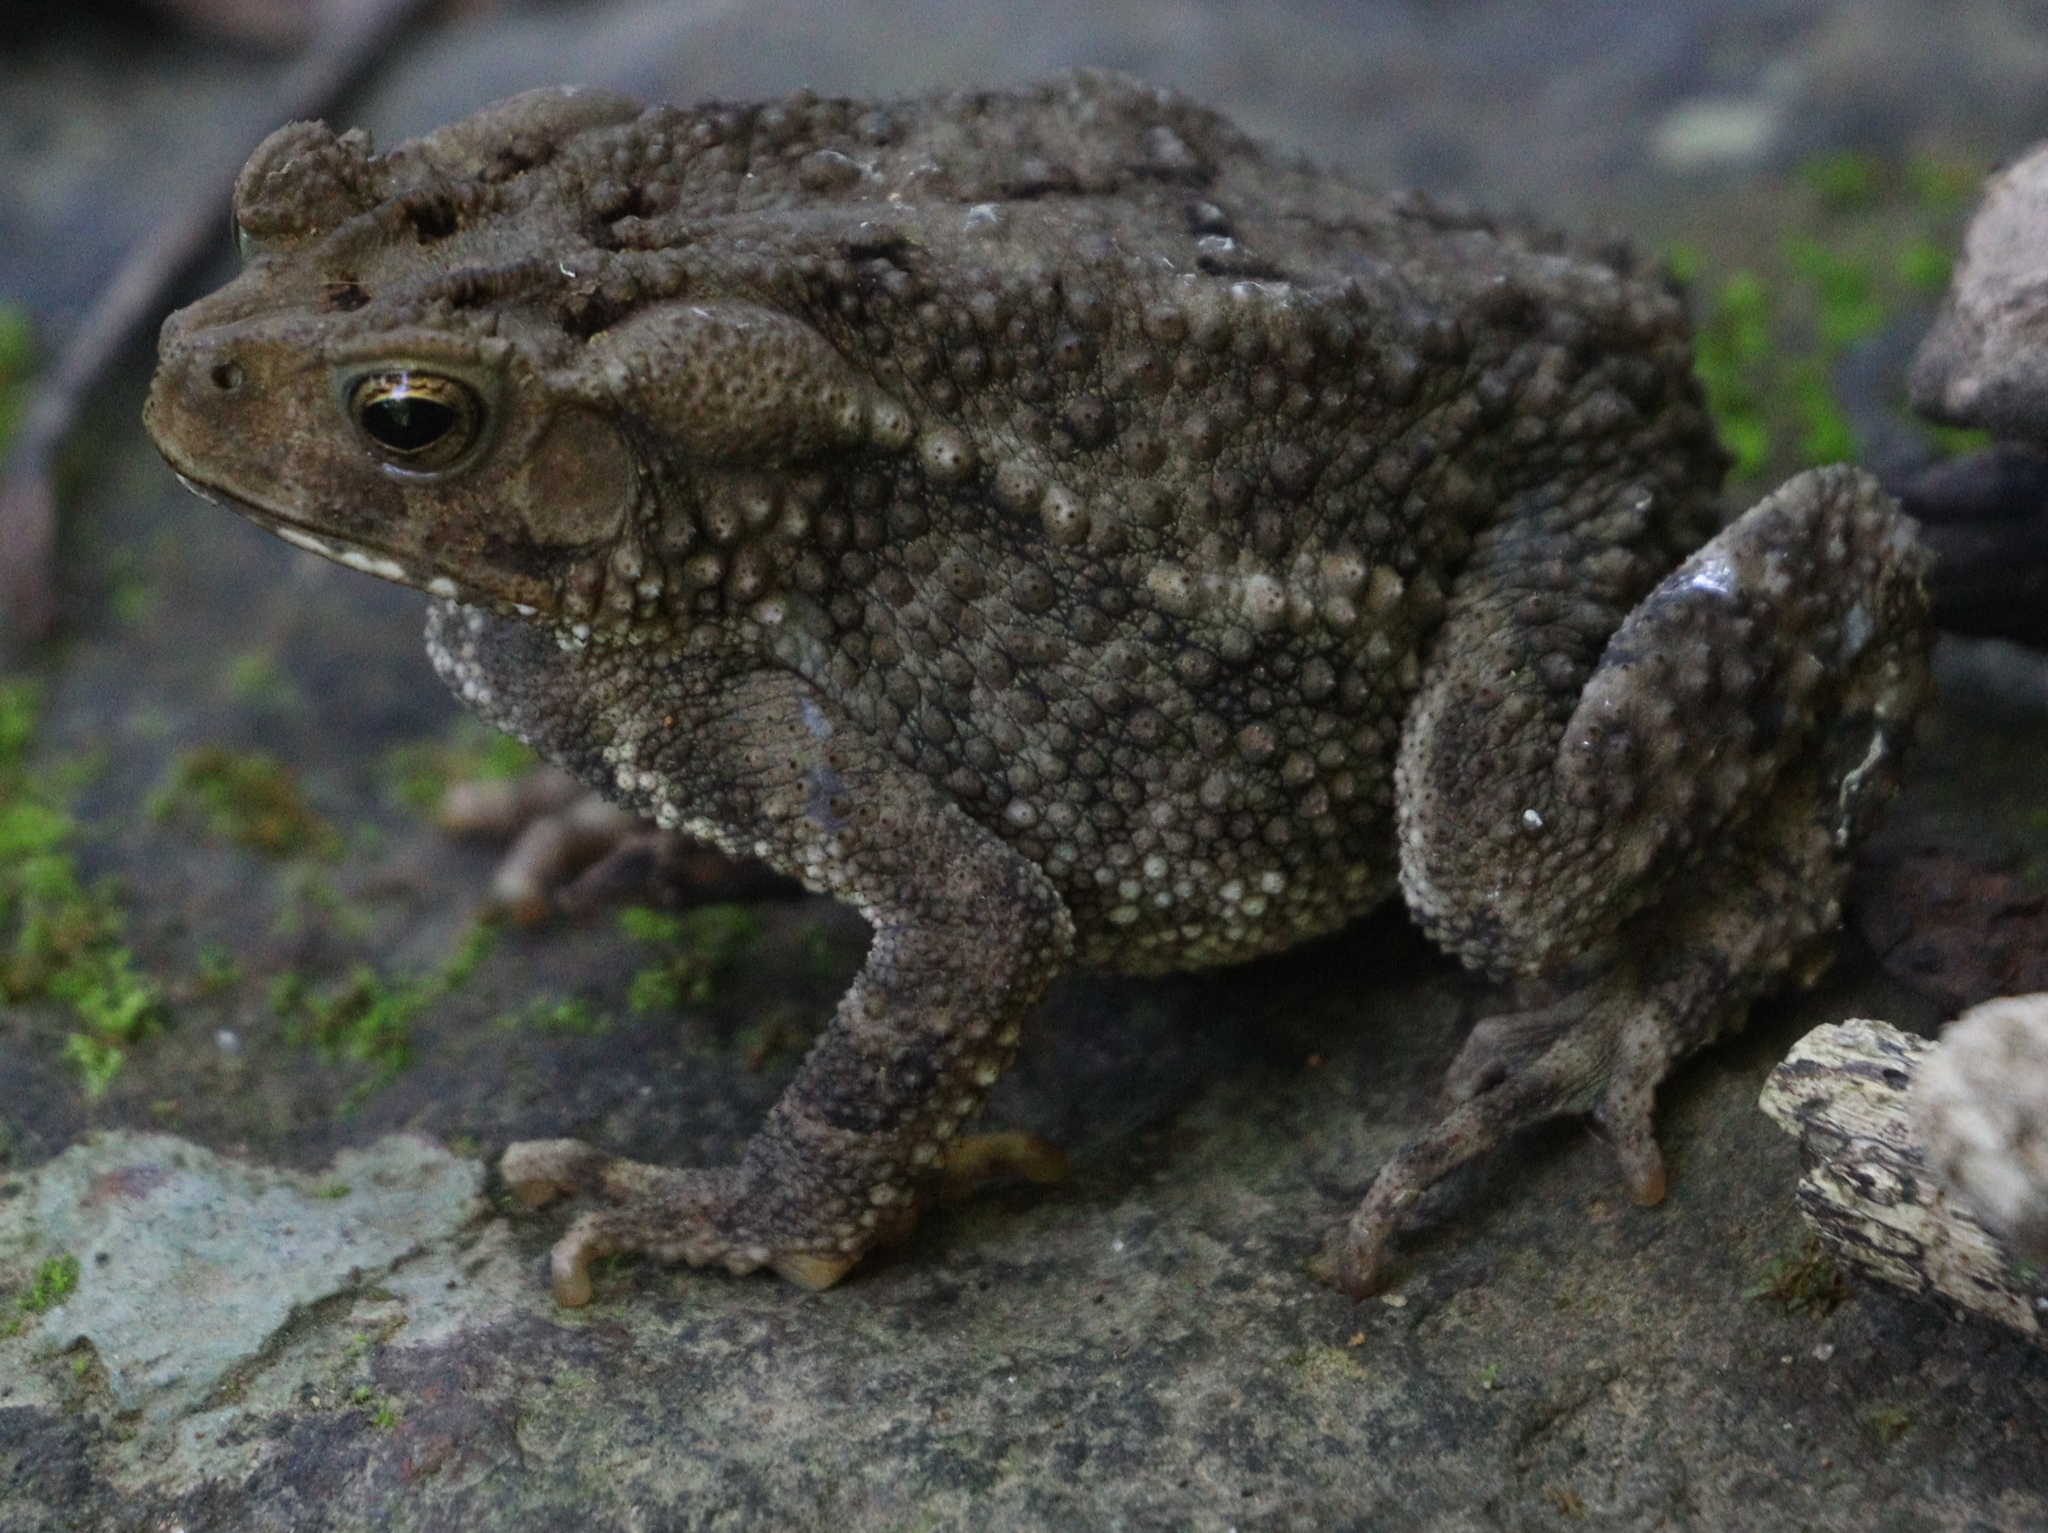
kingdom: Animalia
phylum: Chordata
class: Amphibia
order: Anura
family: Bufonidae
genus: Ingerophrynus
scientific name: Ingerophrynus biporcatus
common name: Crested toad
